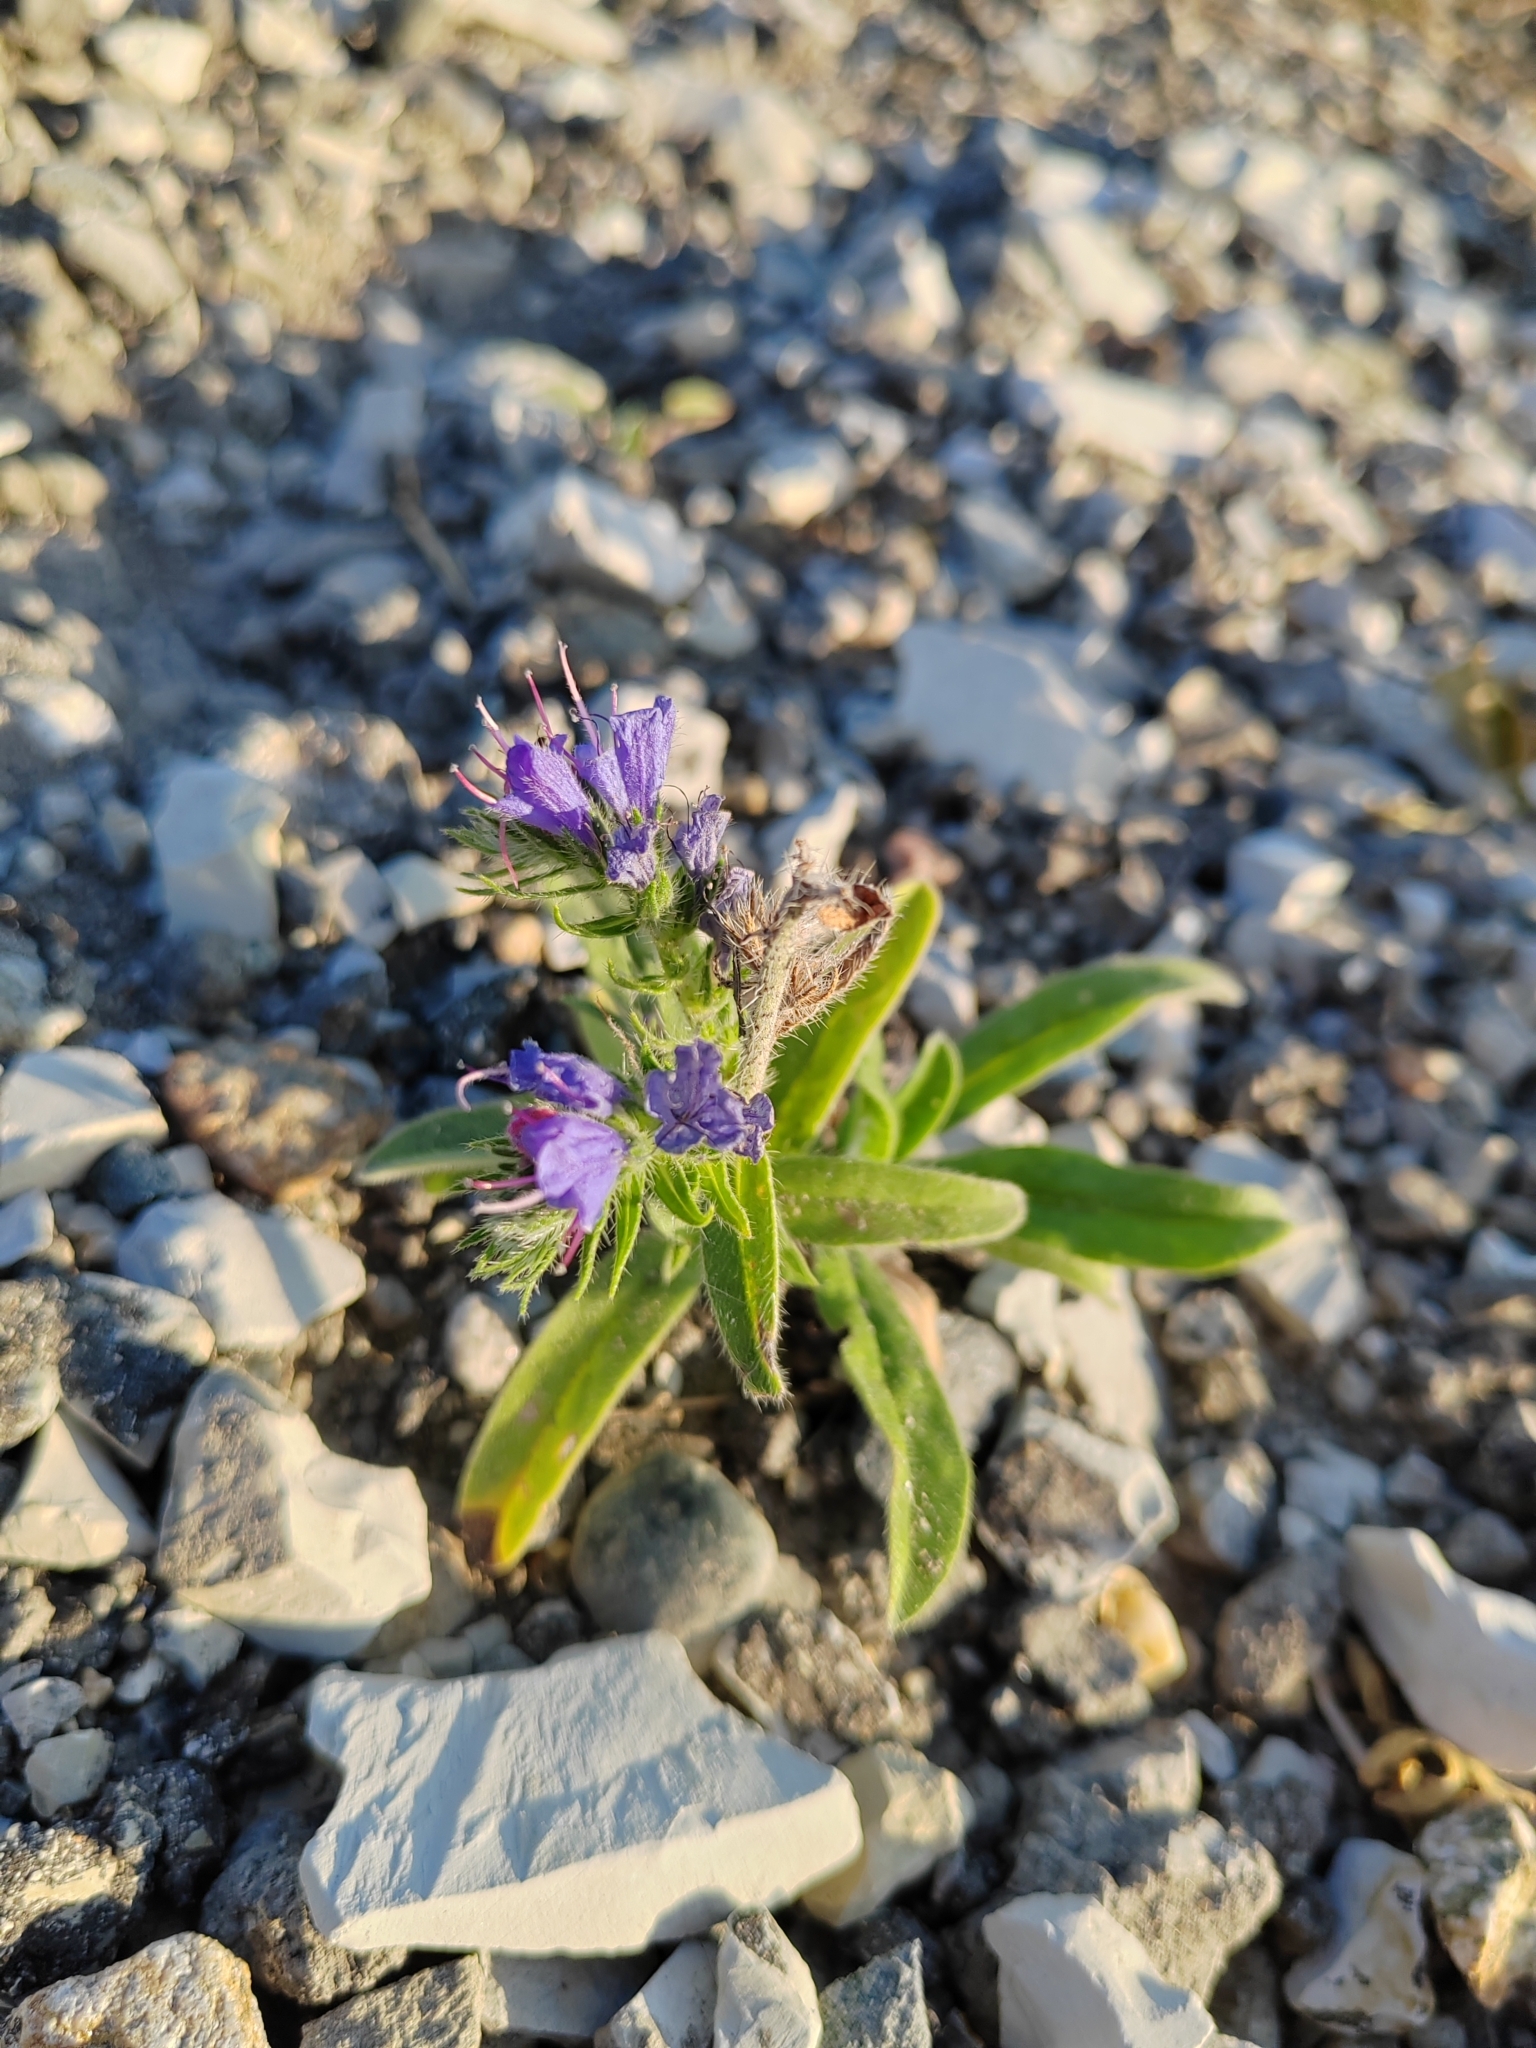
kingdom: Plantae
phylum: Tracheophyta
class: Magnoliopsida
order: Boraginales
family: Boraginaceae
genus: Echium
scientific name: Echium vulgare
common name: Common viper's bugloss
